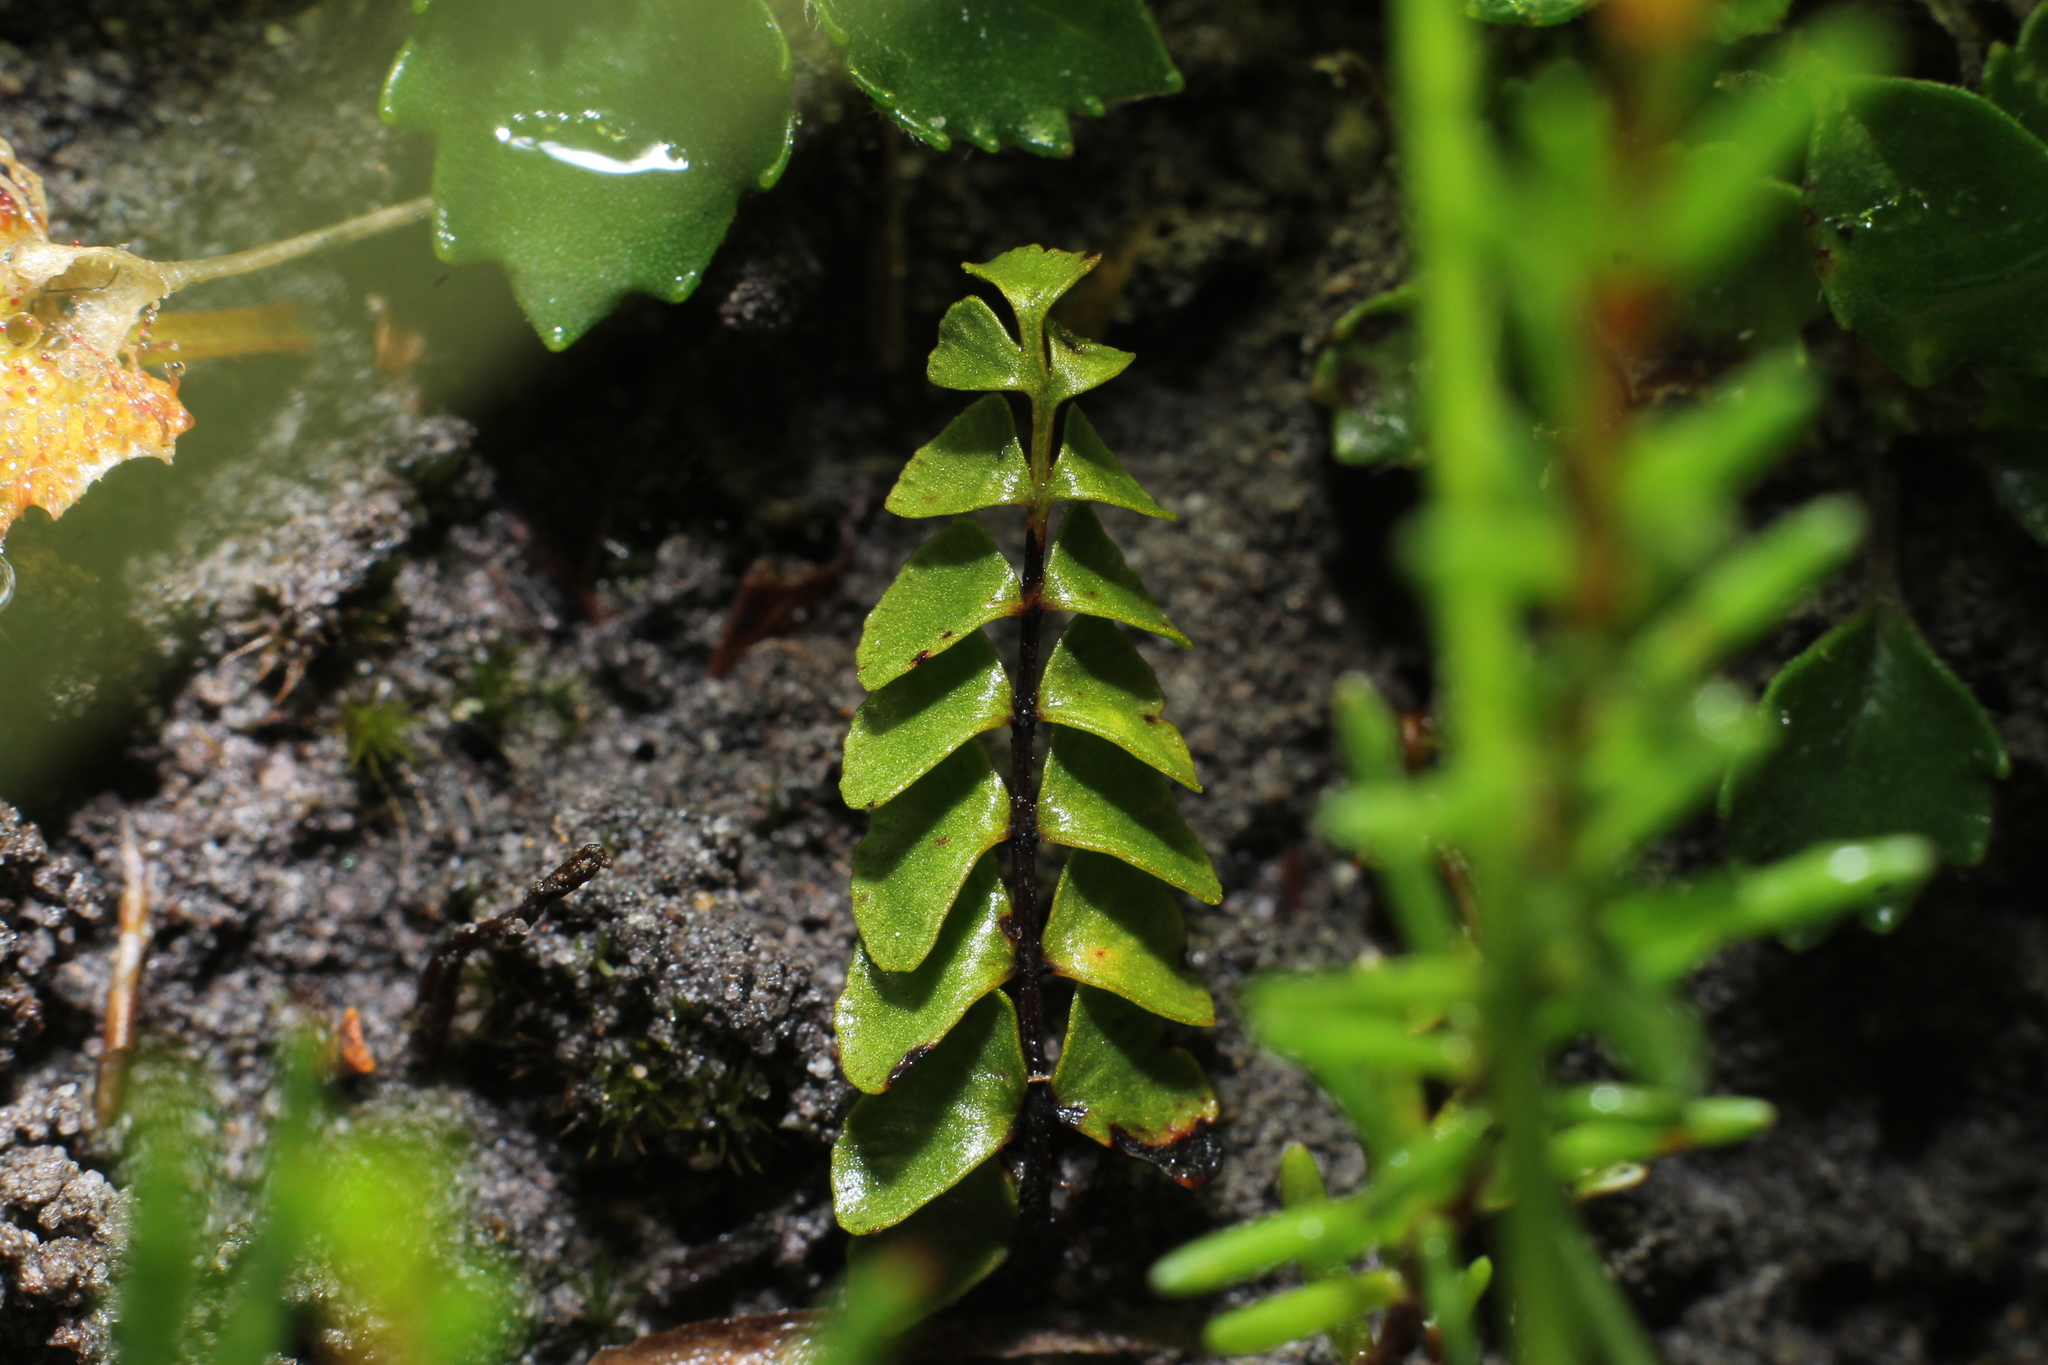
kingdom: Plantae
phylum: Tracheophyta
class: Polypodiopsida
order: Polypodiales
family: Lindsaeaceae
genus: Lindsaea
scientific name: Lindsaea linearis
